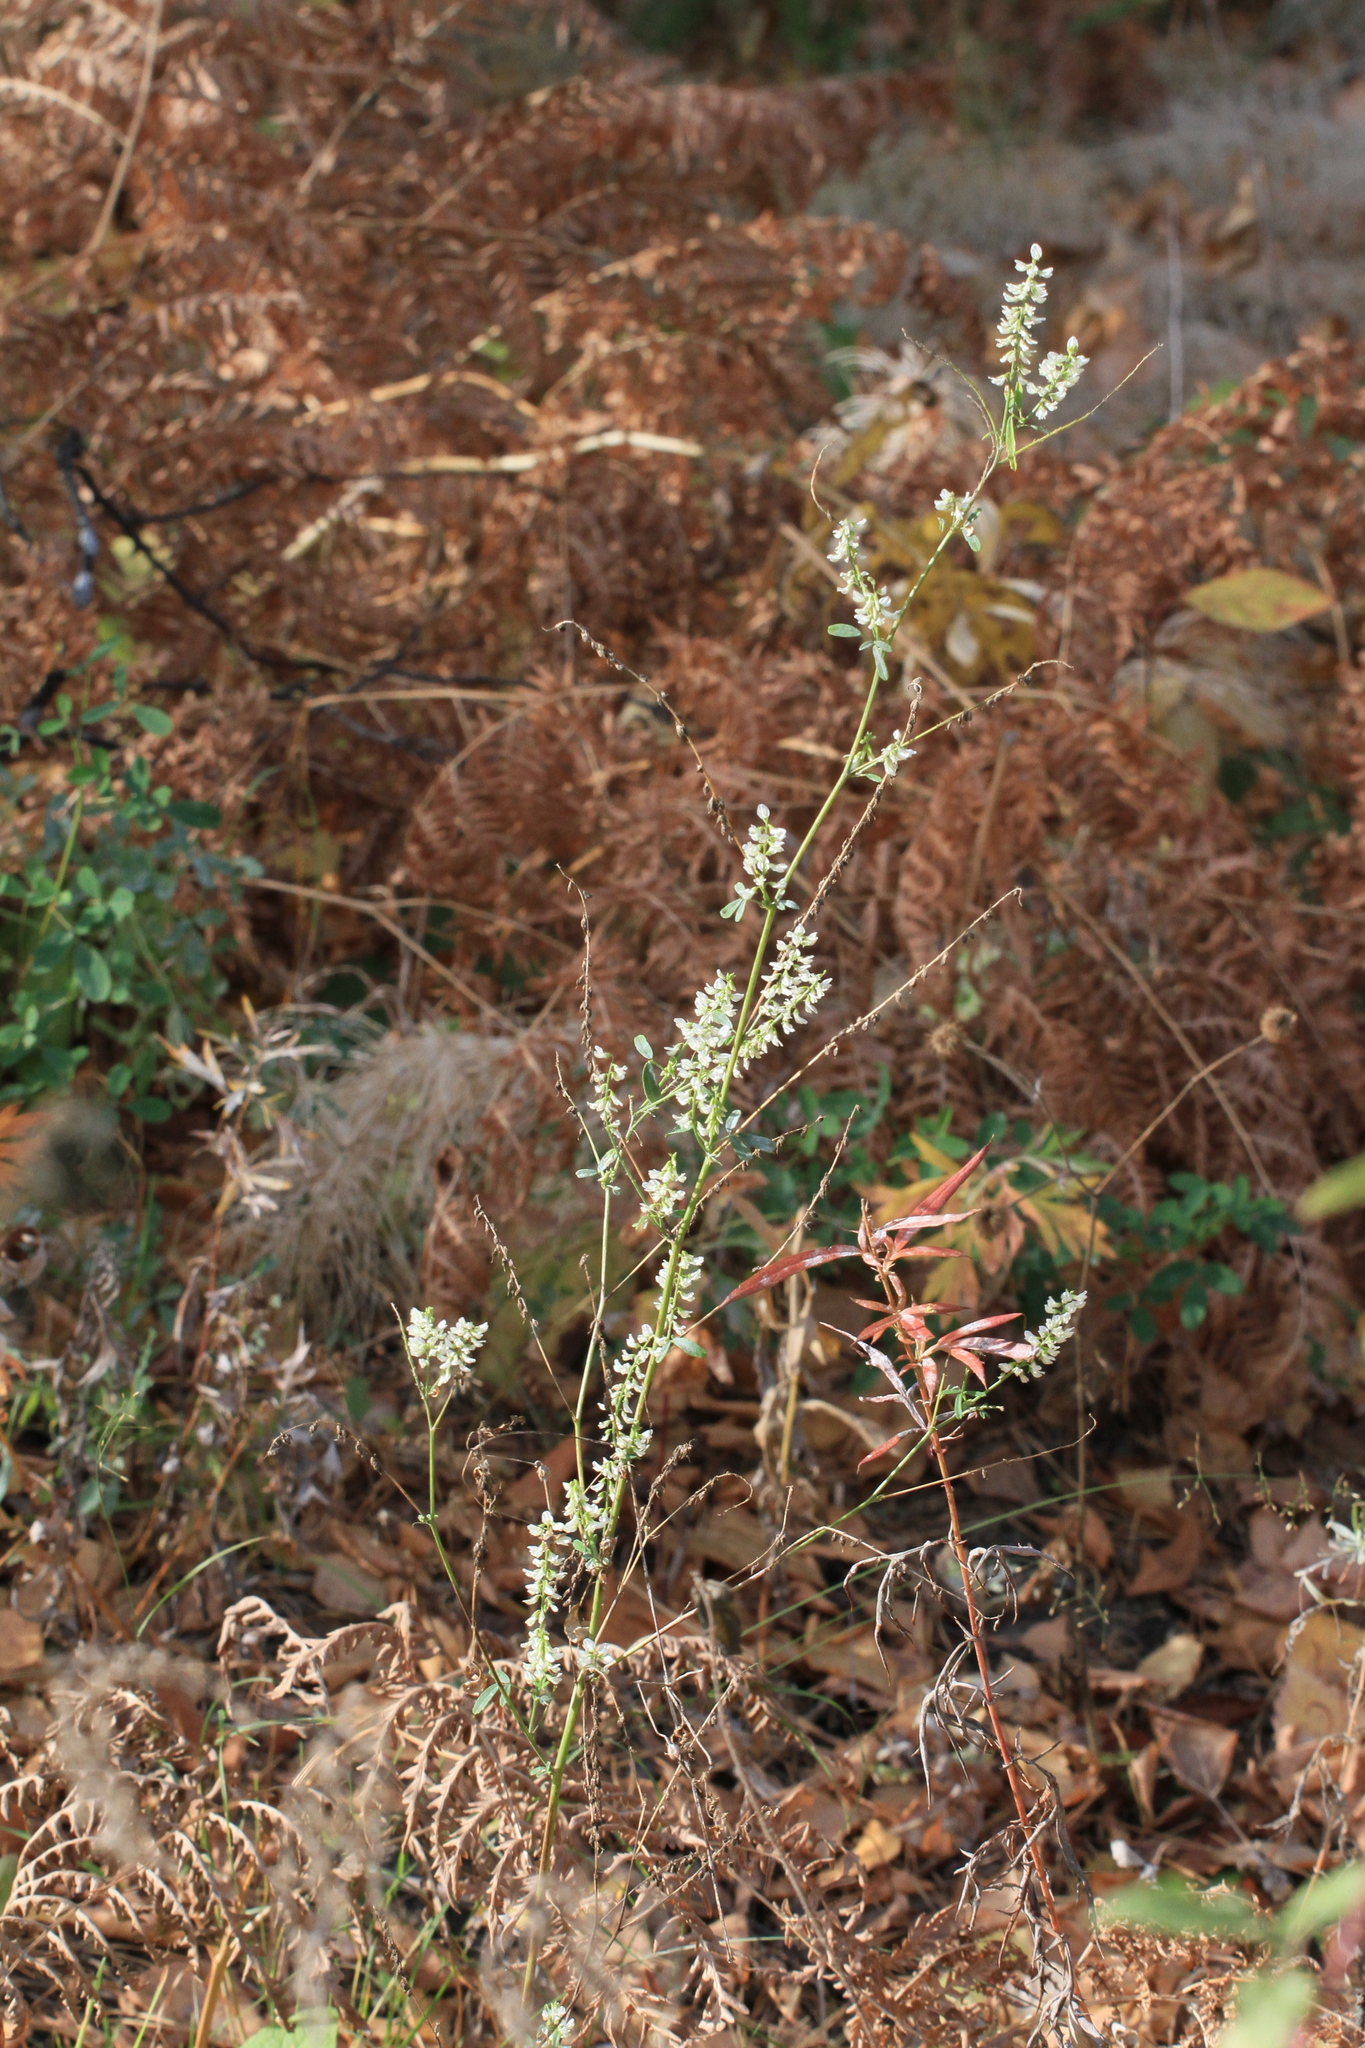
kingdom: Plantae
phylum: Tracheophyta
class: Magnoliopsida
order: Fabales
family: Fabaceae
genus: Melilotus
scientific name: Melilotus albus
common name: White melilot
